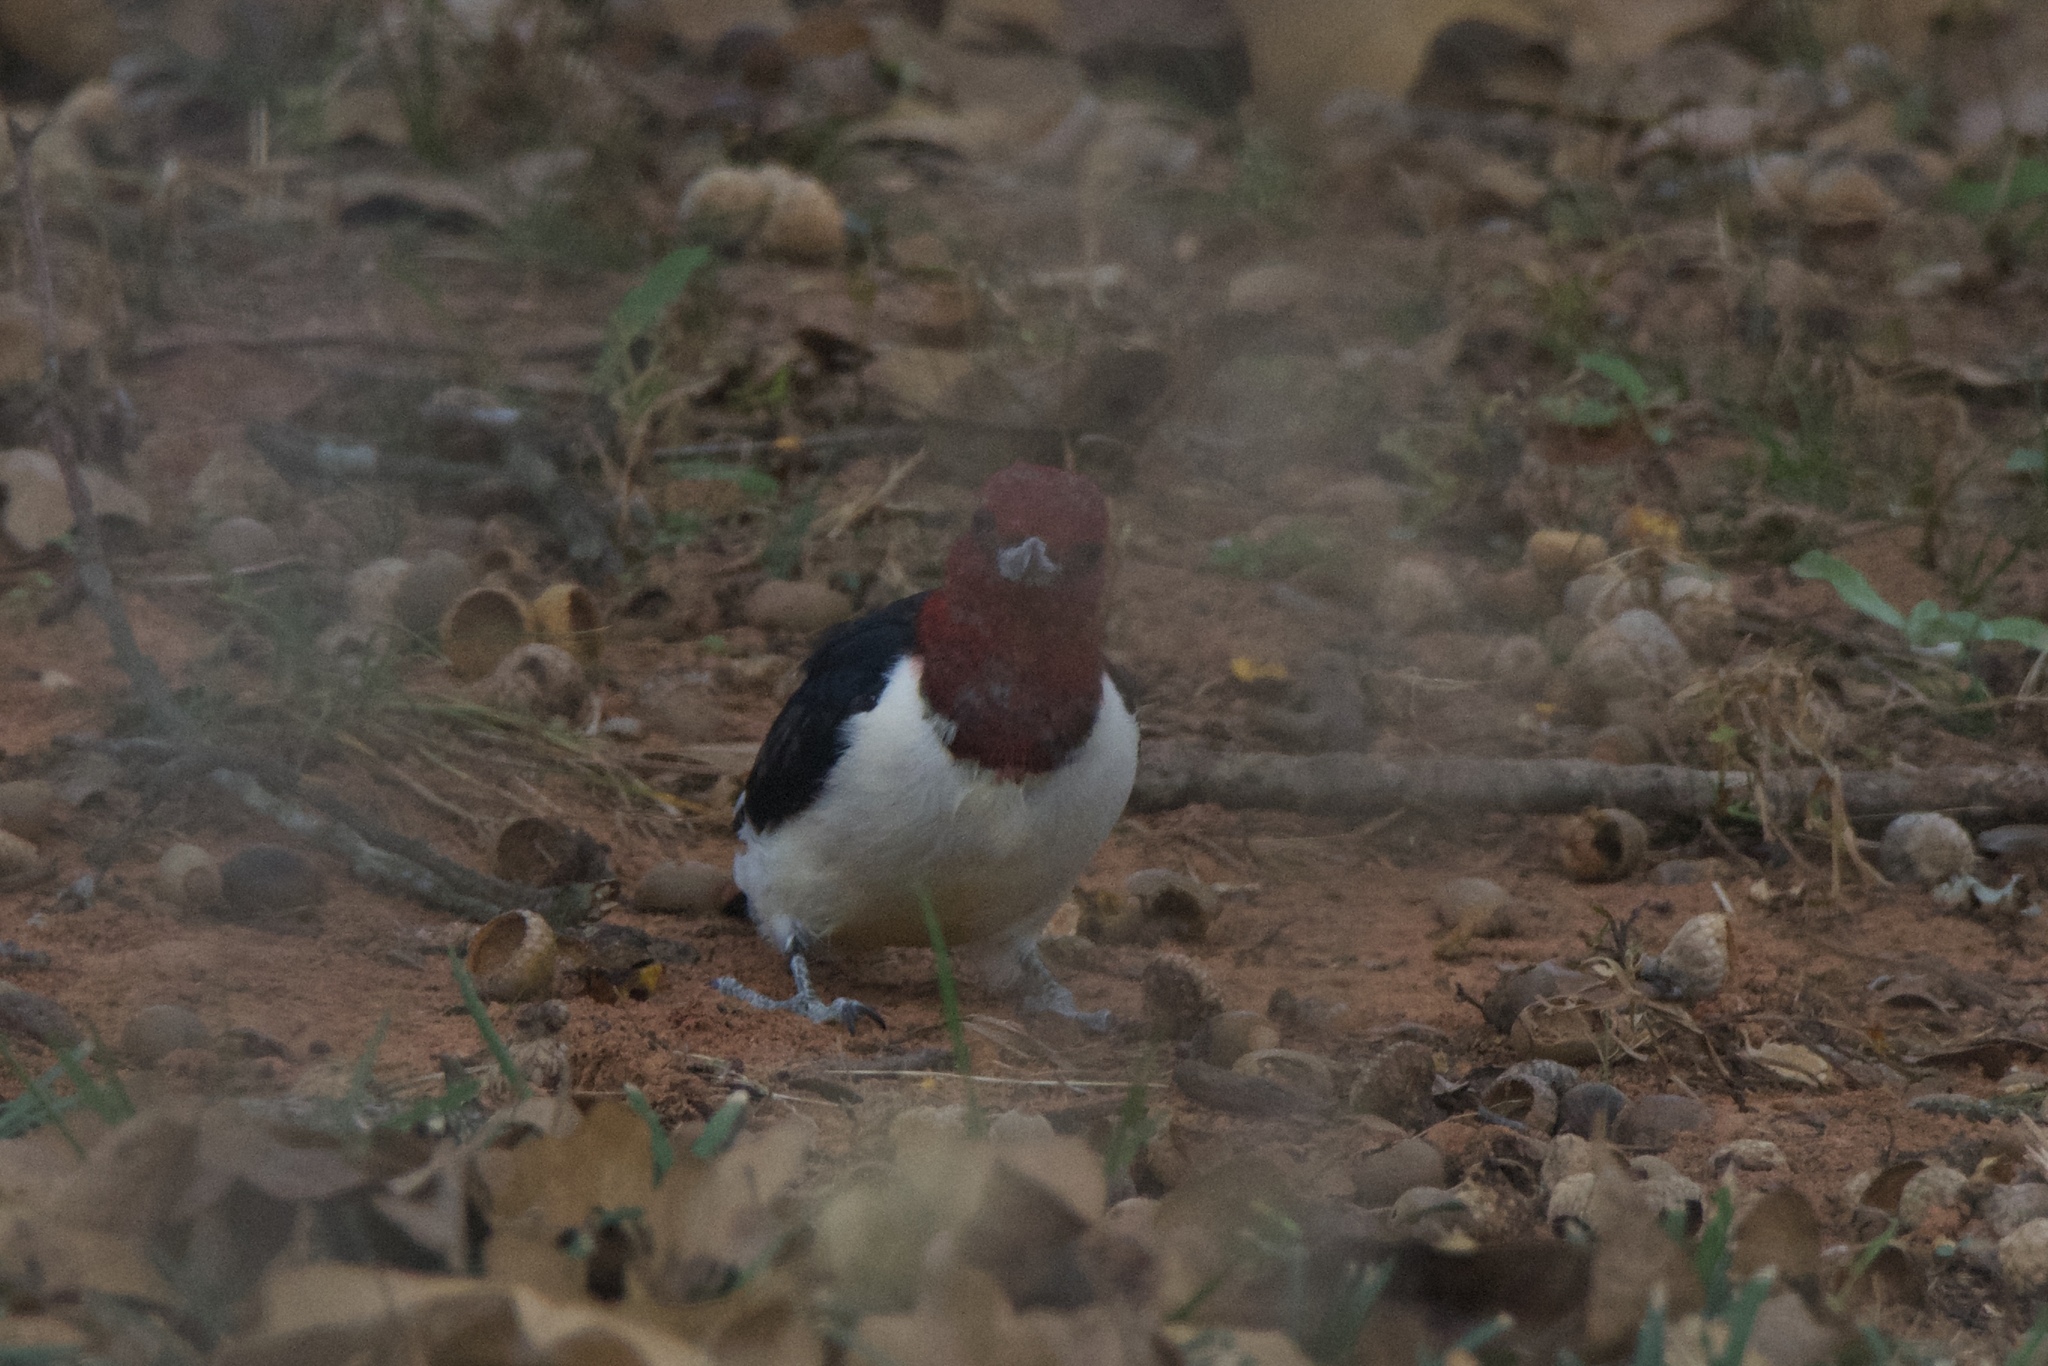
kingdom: Animalia
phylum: Chordata
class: Aves
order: Piciformes
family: Picidae
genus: Melanerpes
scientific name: Melanerpes erythrocephalus
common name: Red-headed woodpecker
